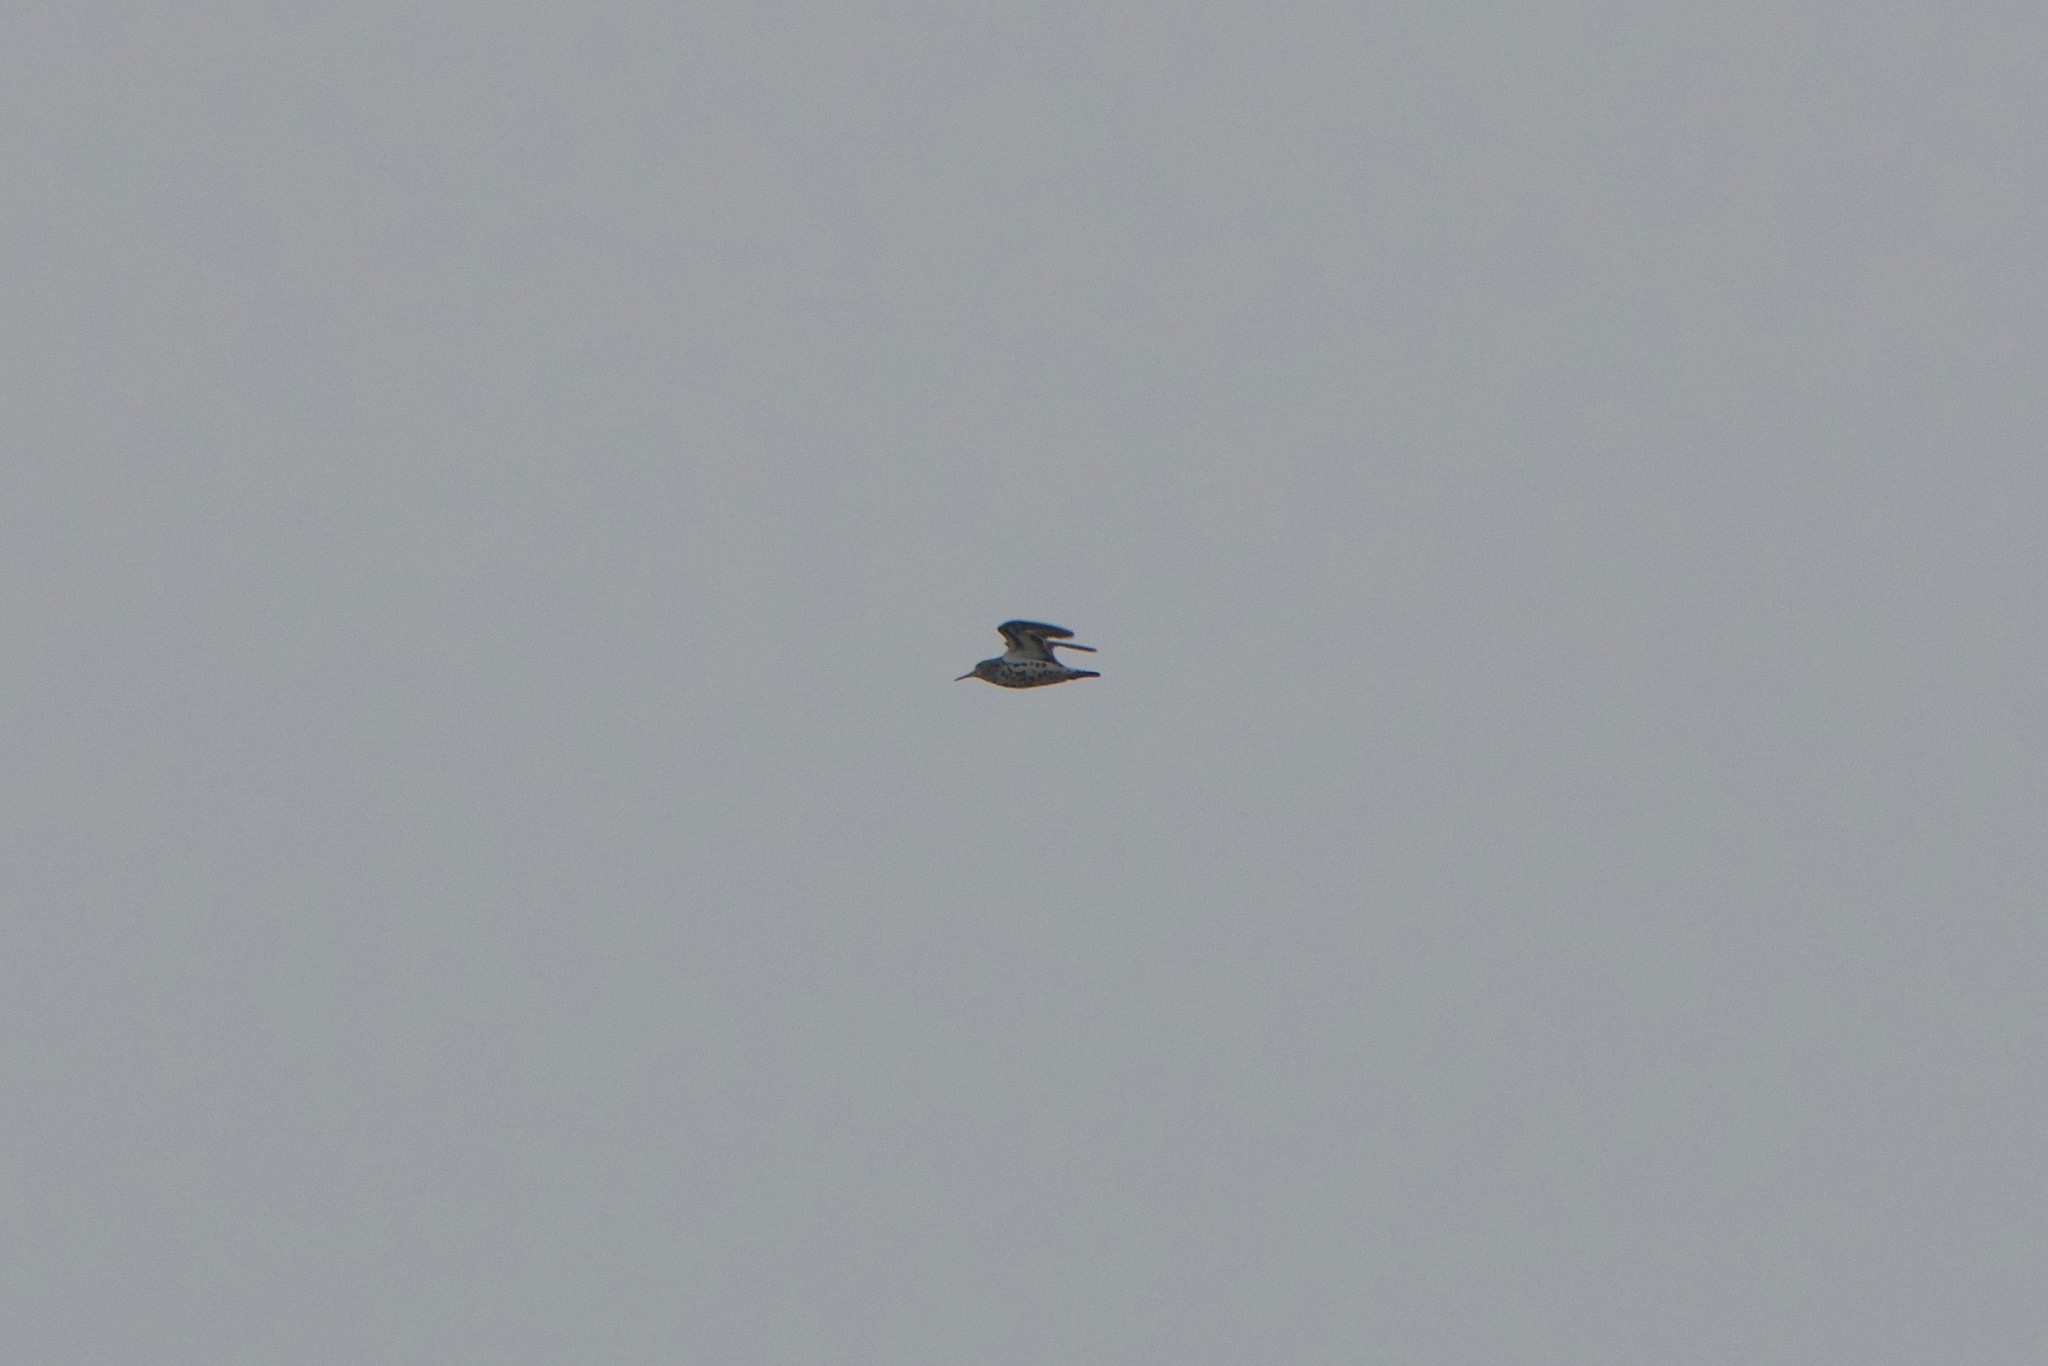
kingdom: Animalia
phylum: Chordata
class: Aves
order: Charadriiformes
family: Scolopacidae
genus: Actitis
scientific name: Actitis macularius
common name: Spotted sandpiper
